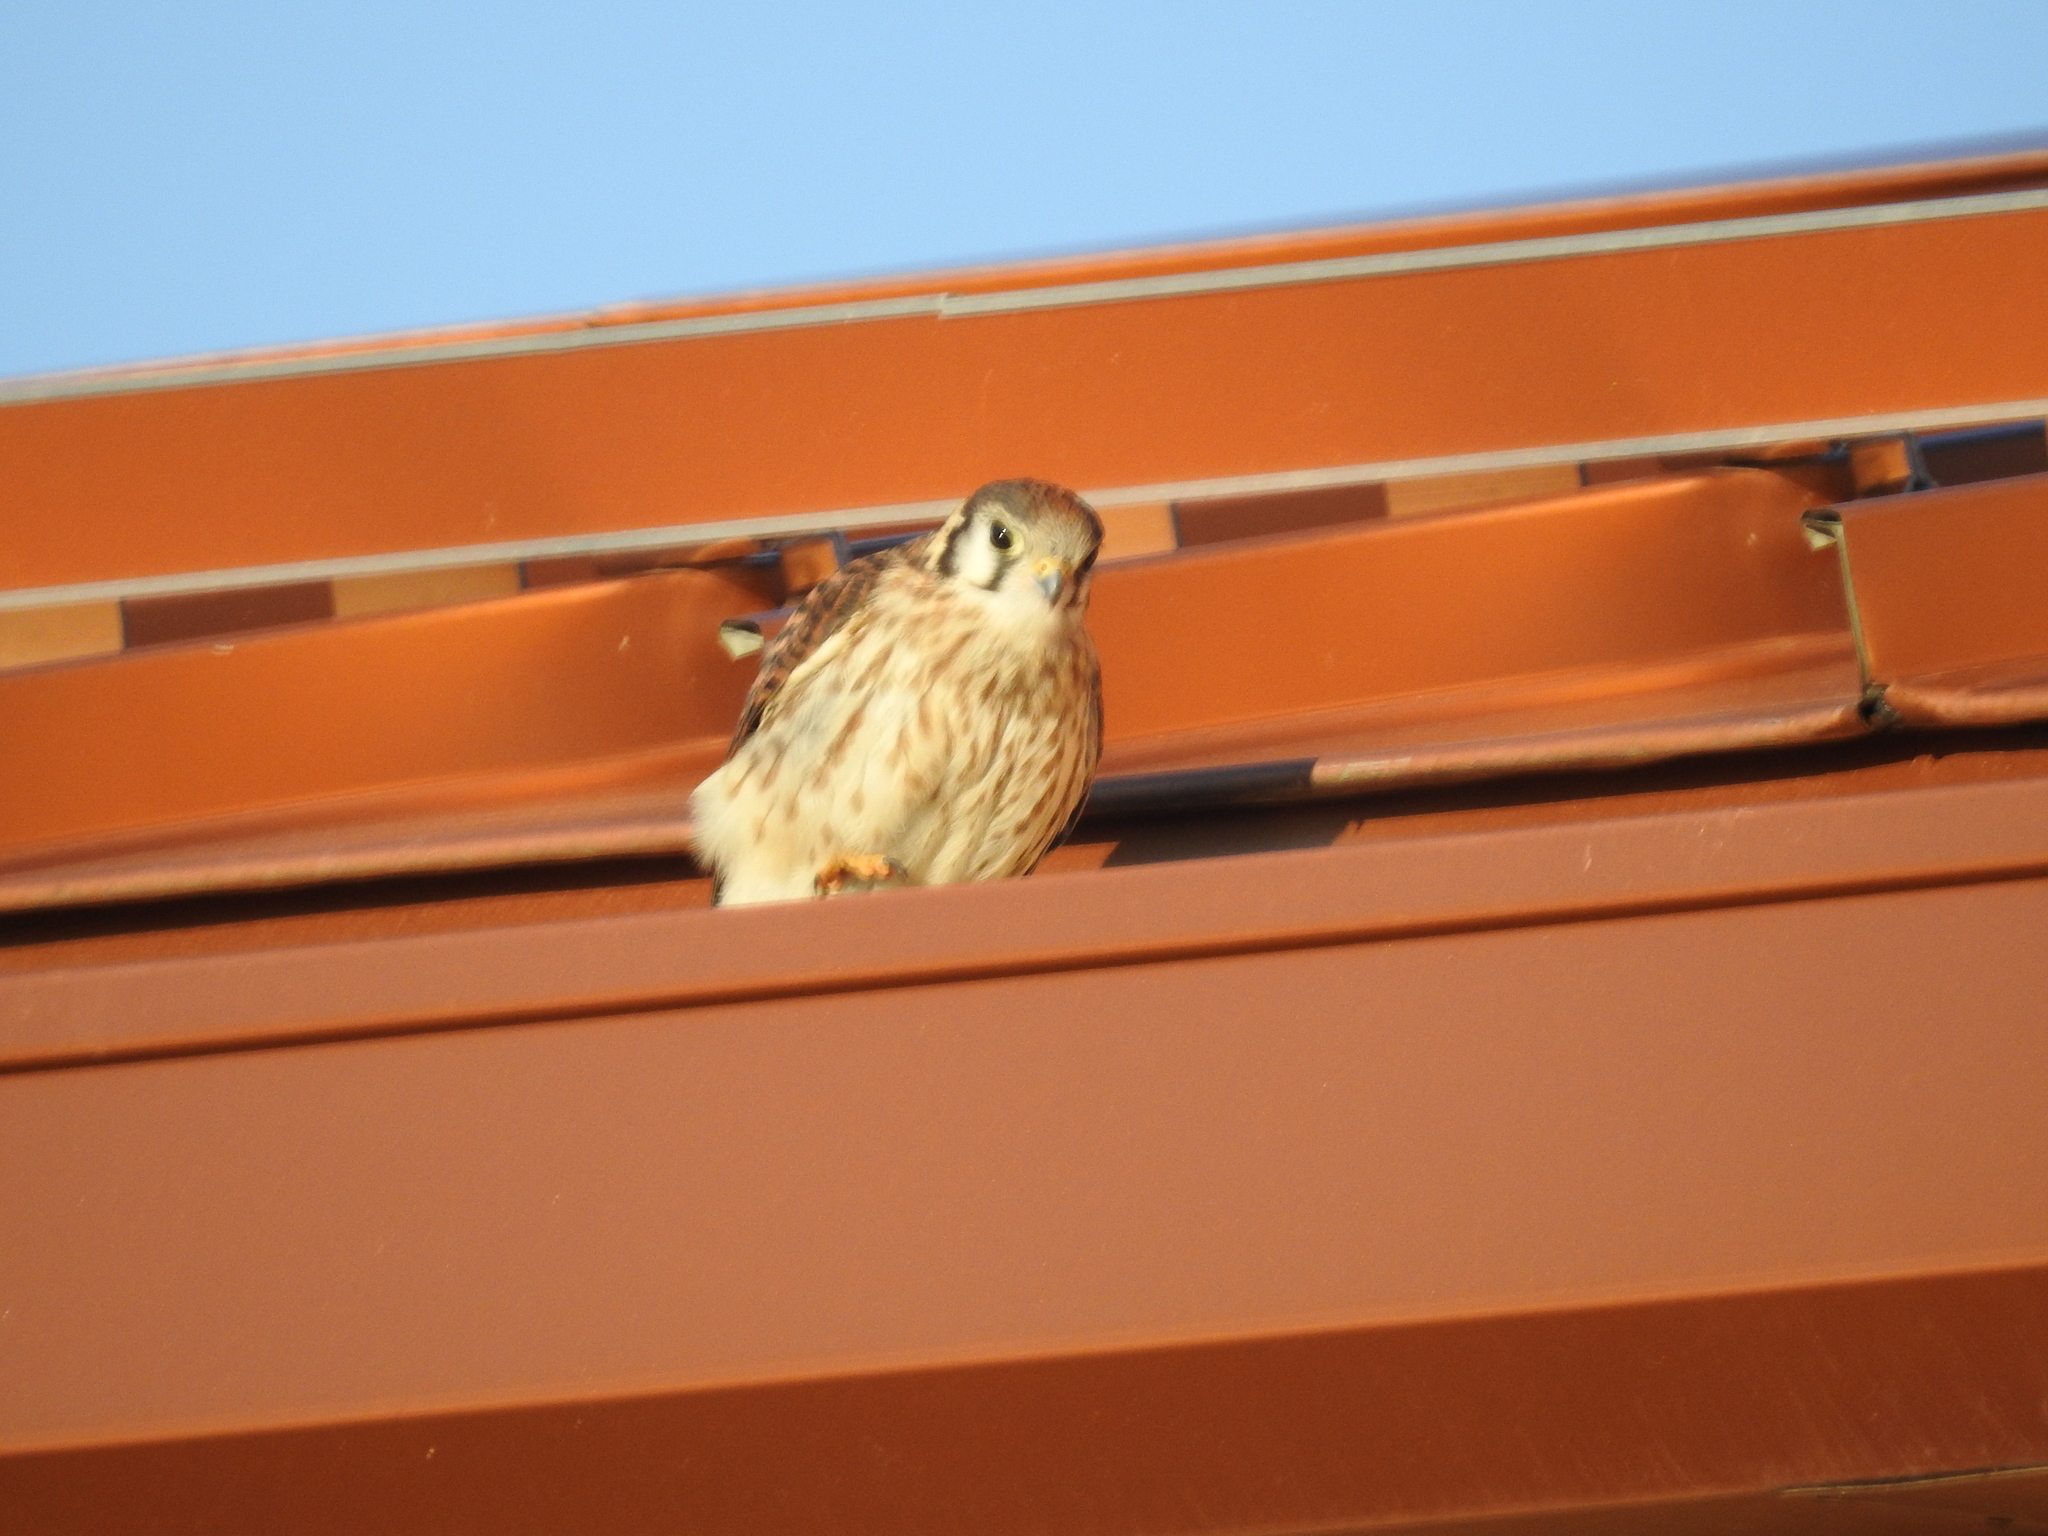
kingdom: Animalia
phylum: Chordata
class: Aves
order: Falconiformes
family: Falconidae
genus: Falco
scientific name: Falco sparverius
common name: American kestrel
